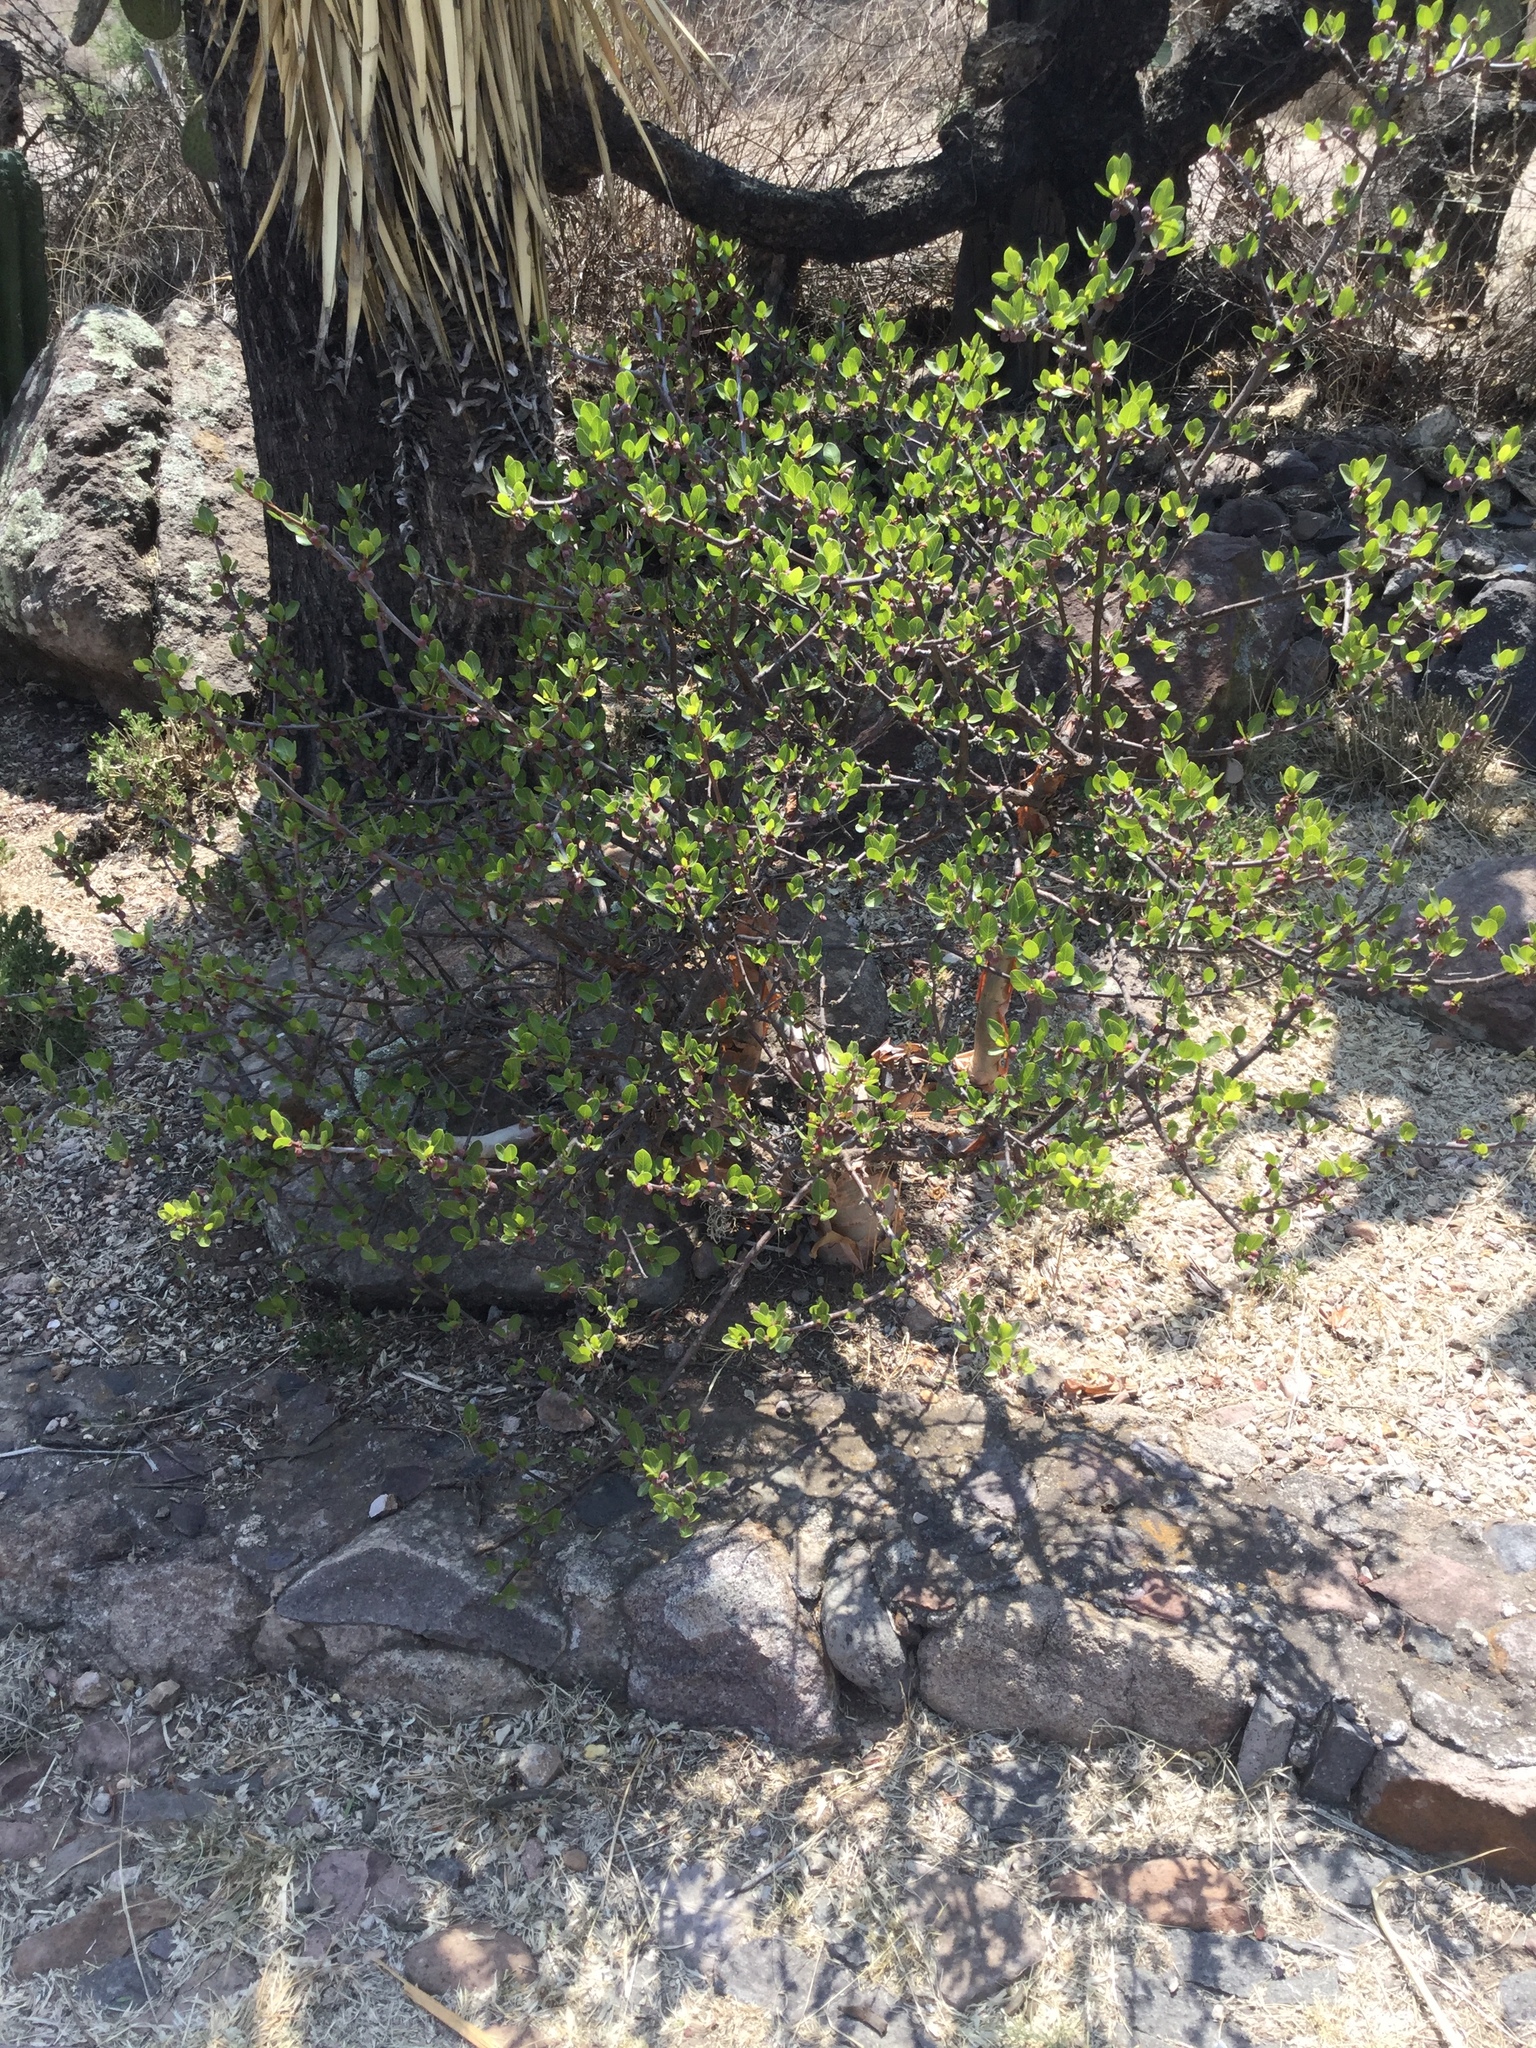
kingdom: Plantae
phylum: Tracheophyta
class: Magnoliopsida
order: Sapindales
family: Burseraceae
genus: Bursera
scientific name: Bursera schlechtendalii
